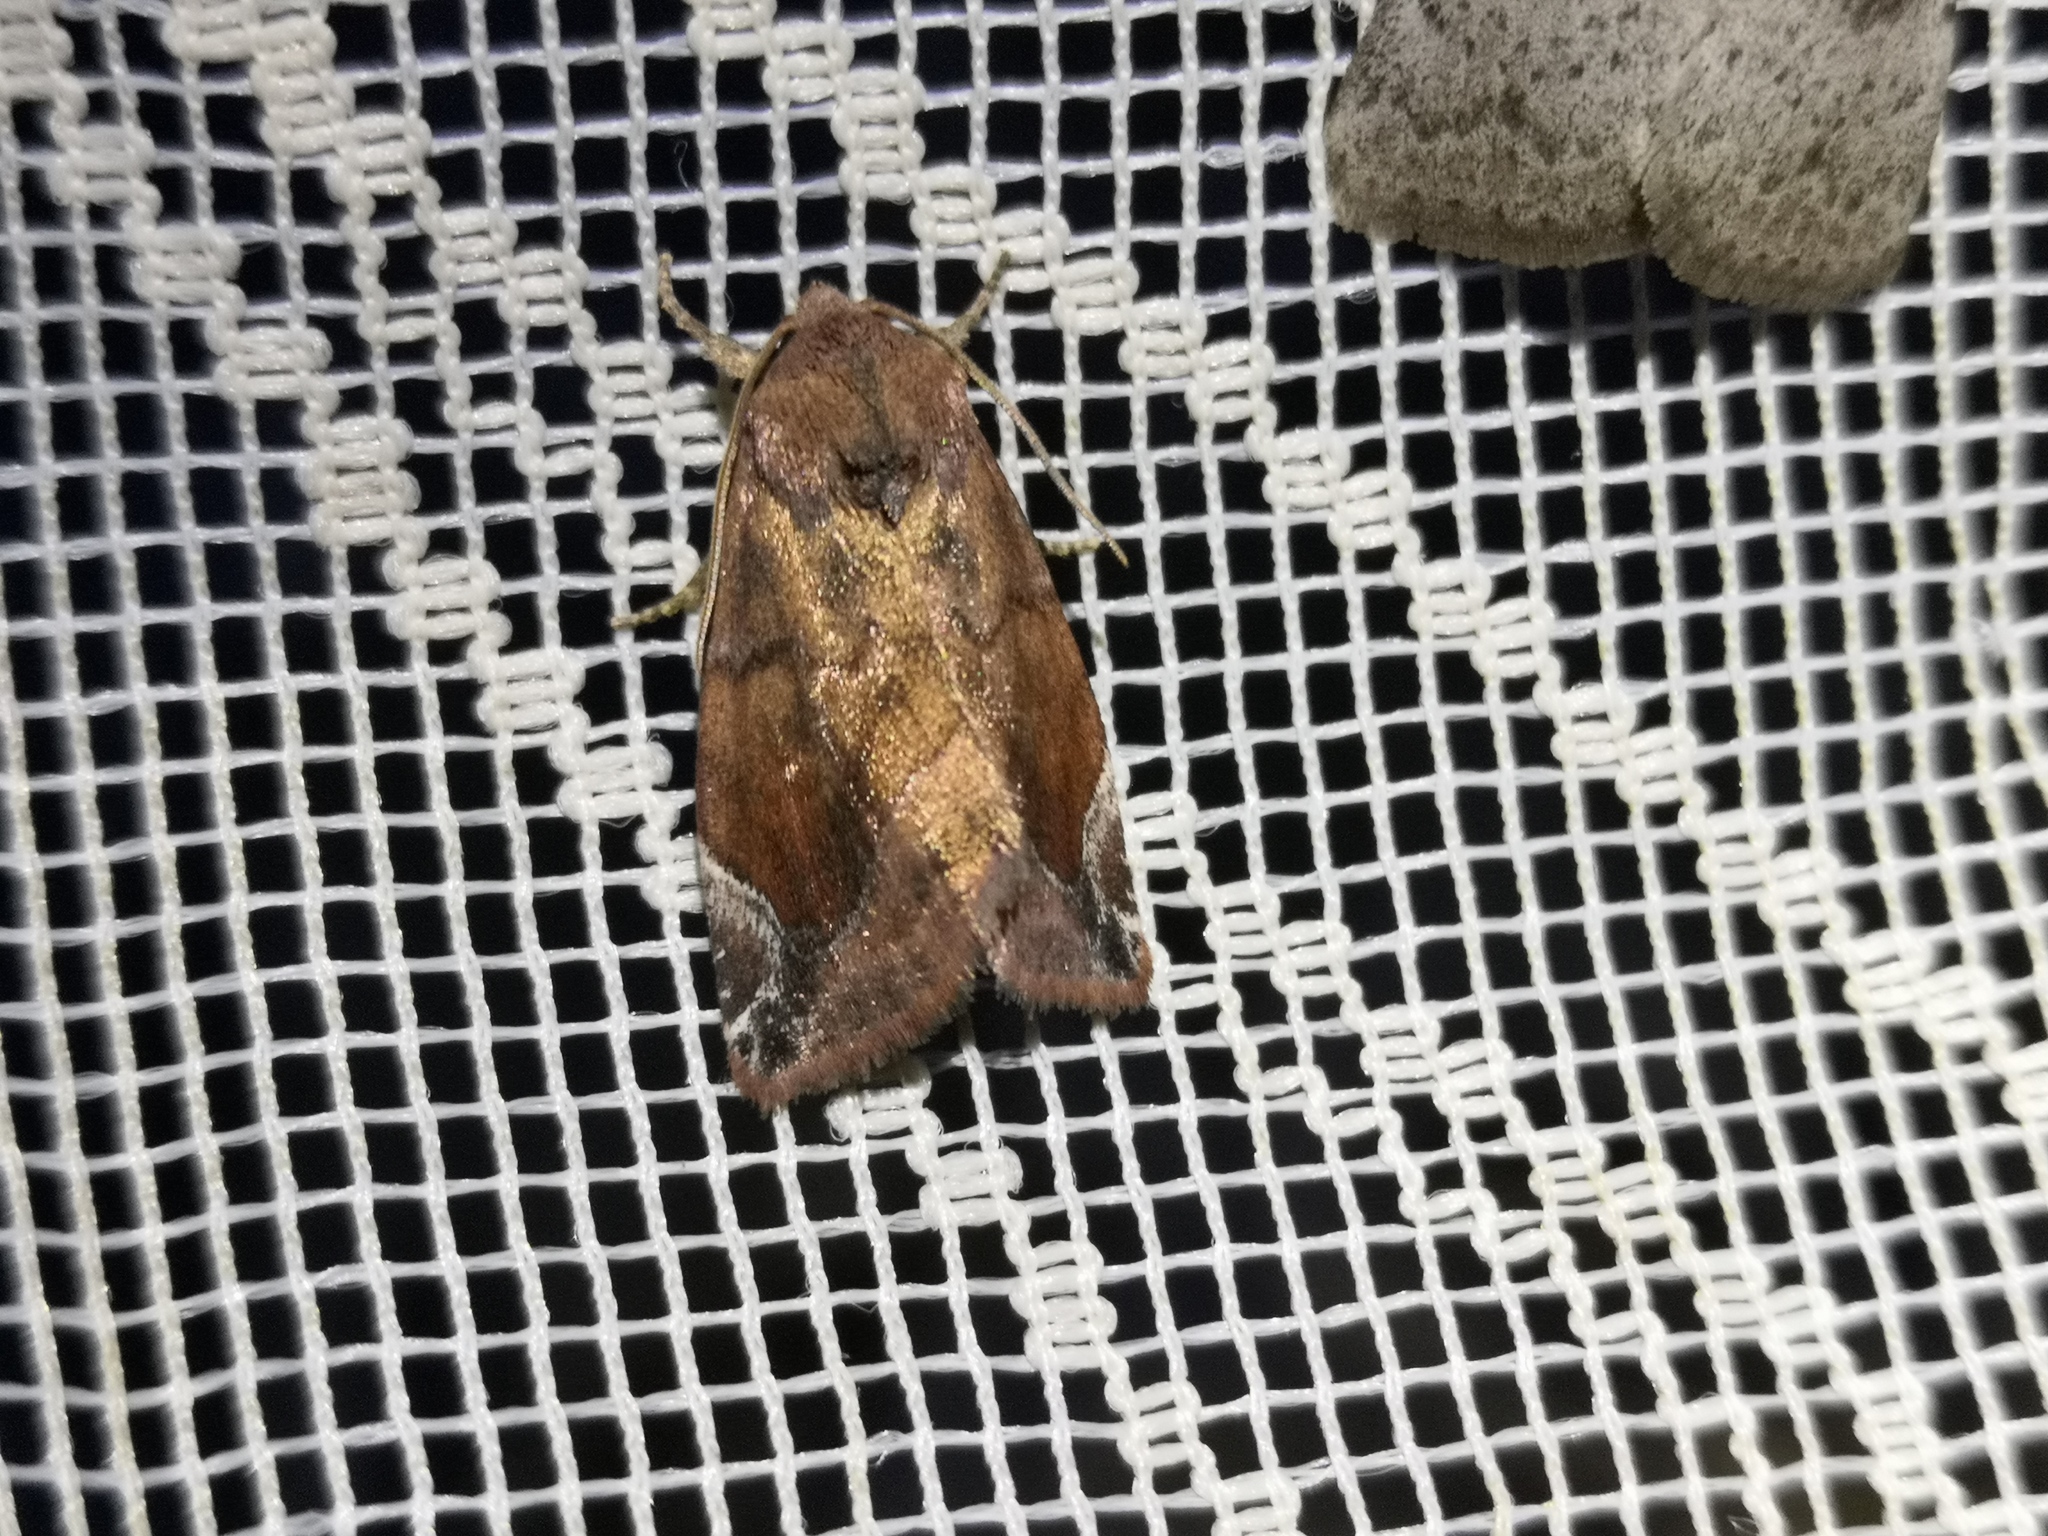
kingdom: Animalia
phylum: Arthropoda
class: Insecta
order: Lepidoptera
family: Noctuidae
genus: Cosmia
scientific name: Cosmia pyralina
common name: Lunar-spotted pinion
